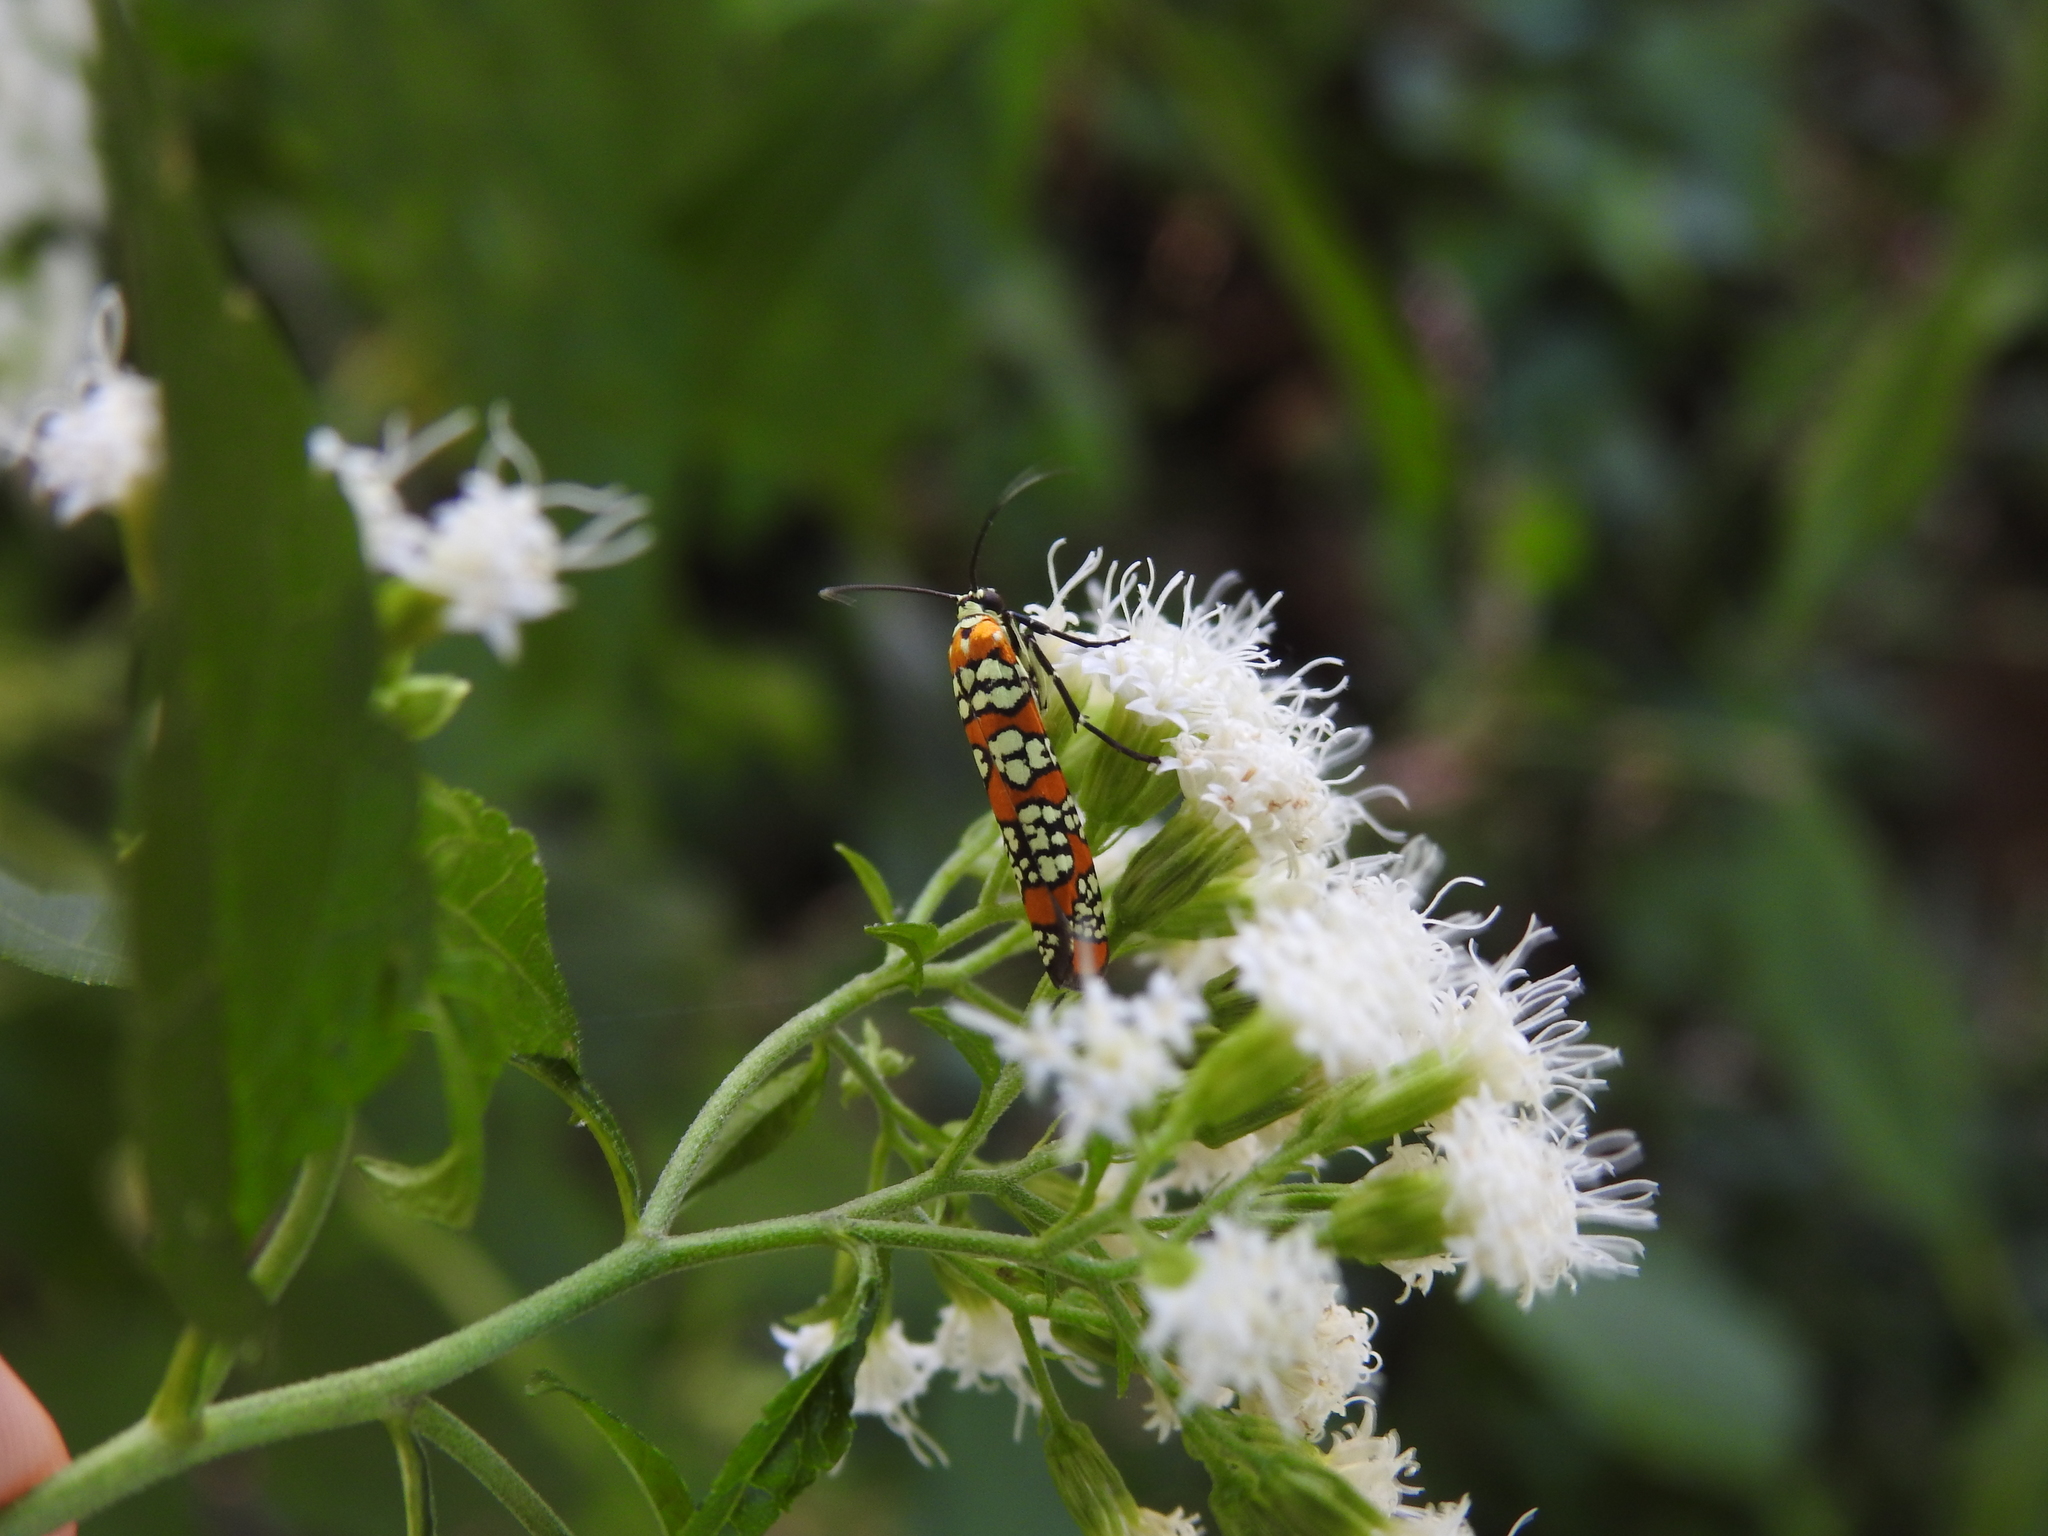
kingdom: Animalia
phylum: Arthropoda
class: Insecta
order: Lepidoptera
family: Attevidae
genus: Atteva
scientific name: Atteva punctella
